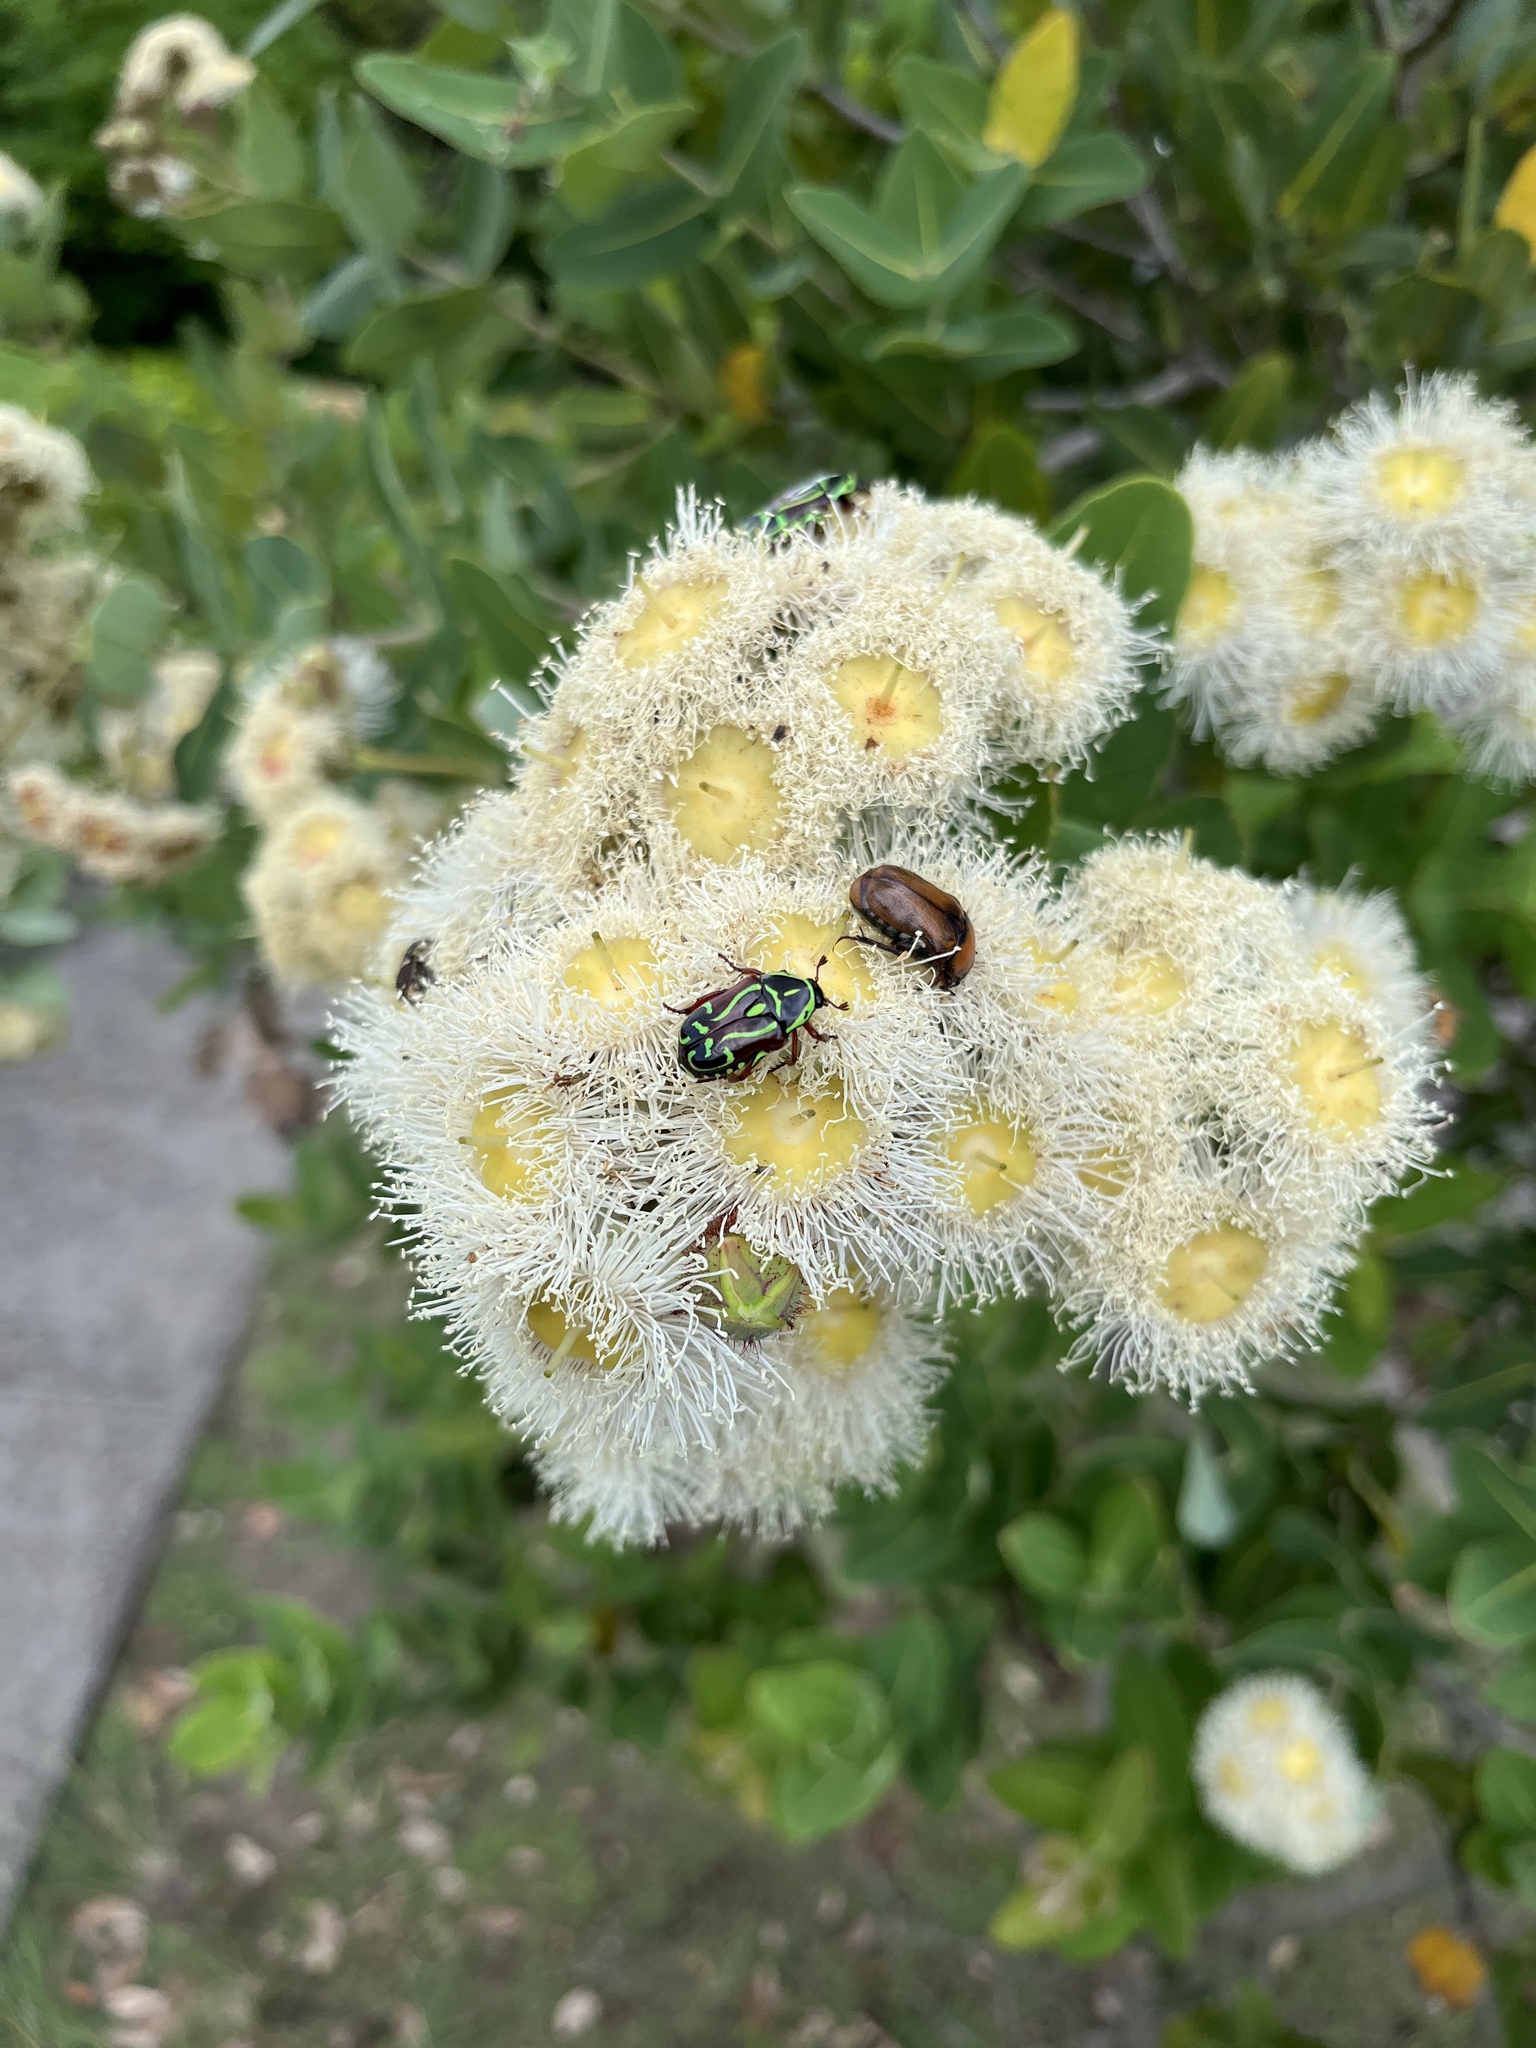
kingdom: Animalia
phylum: Arthropoda
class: Insecta
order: Coleoptera
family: Scarabaeidae
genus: Eupoecila
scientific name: Eupoecila australasiae
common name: Fiddler beetle
